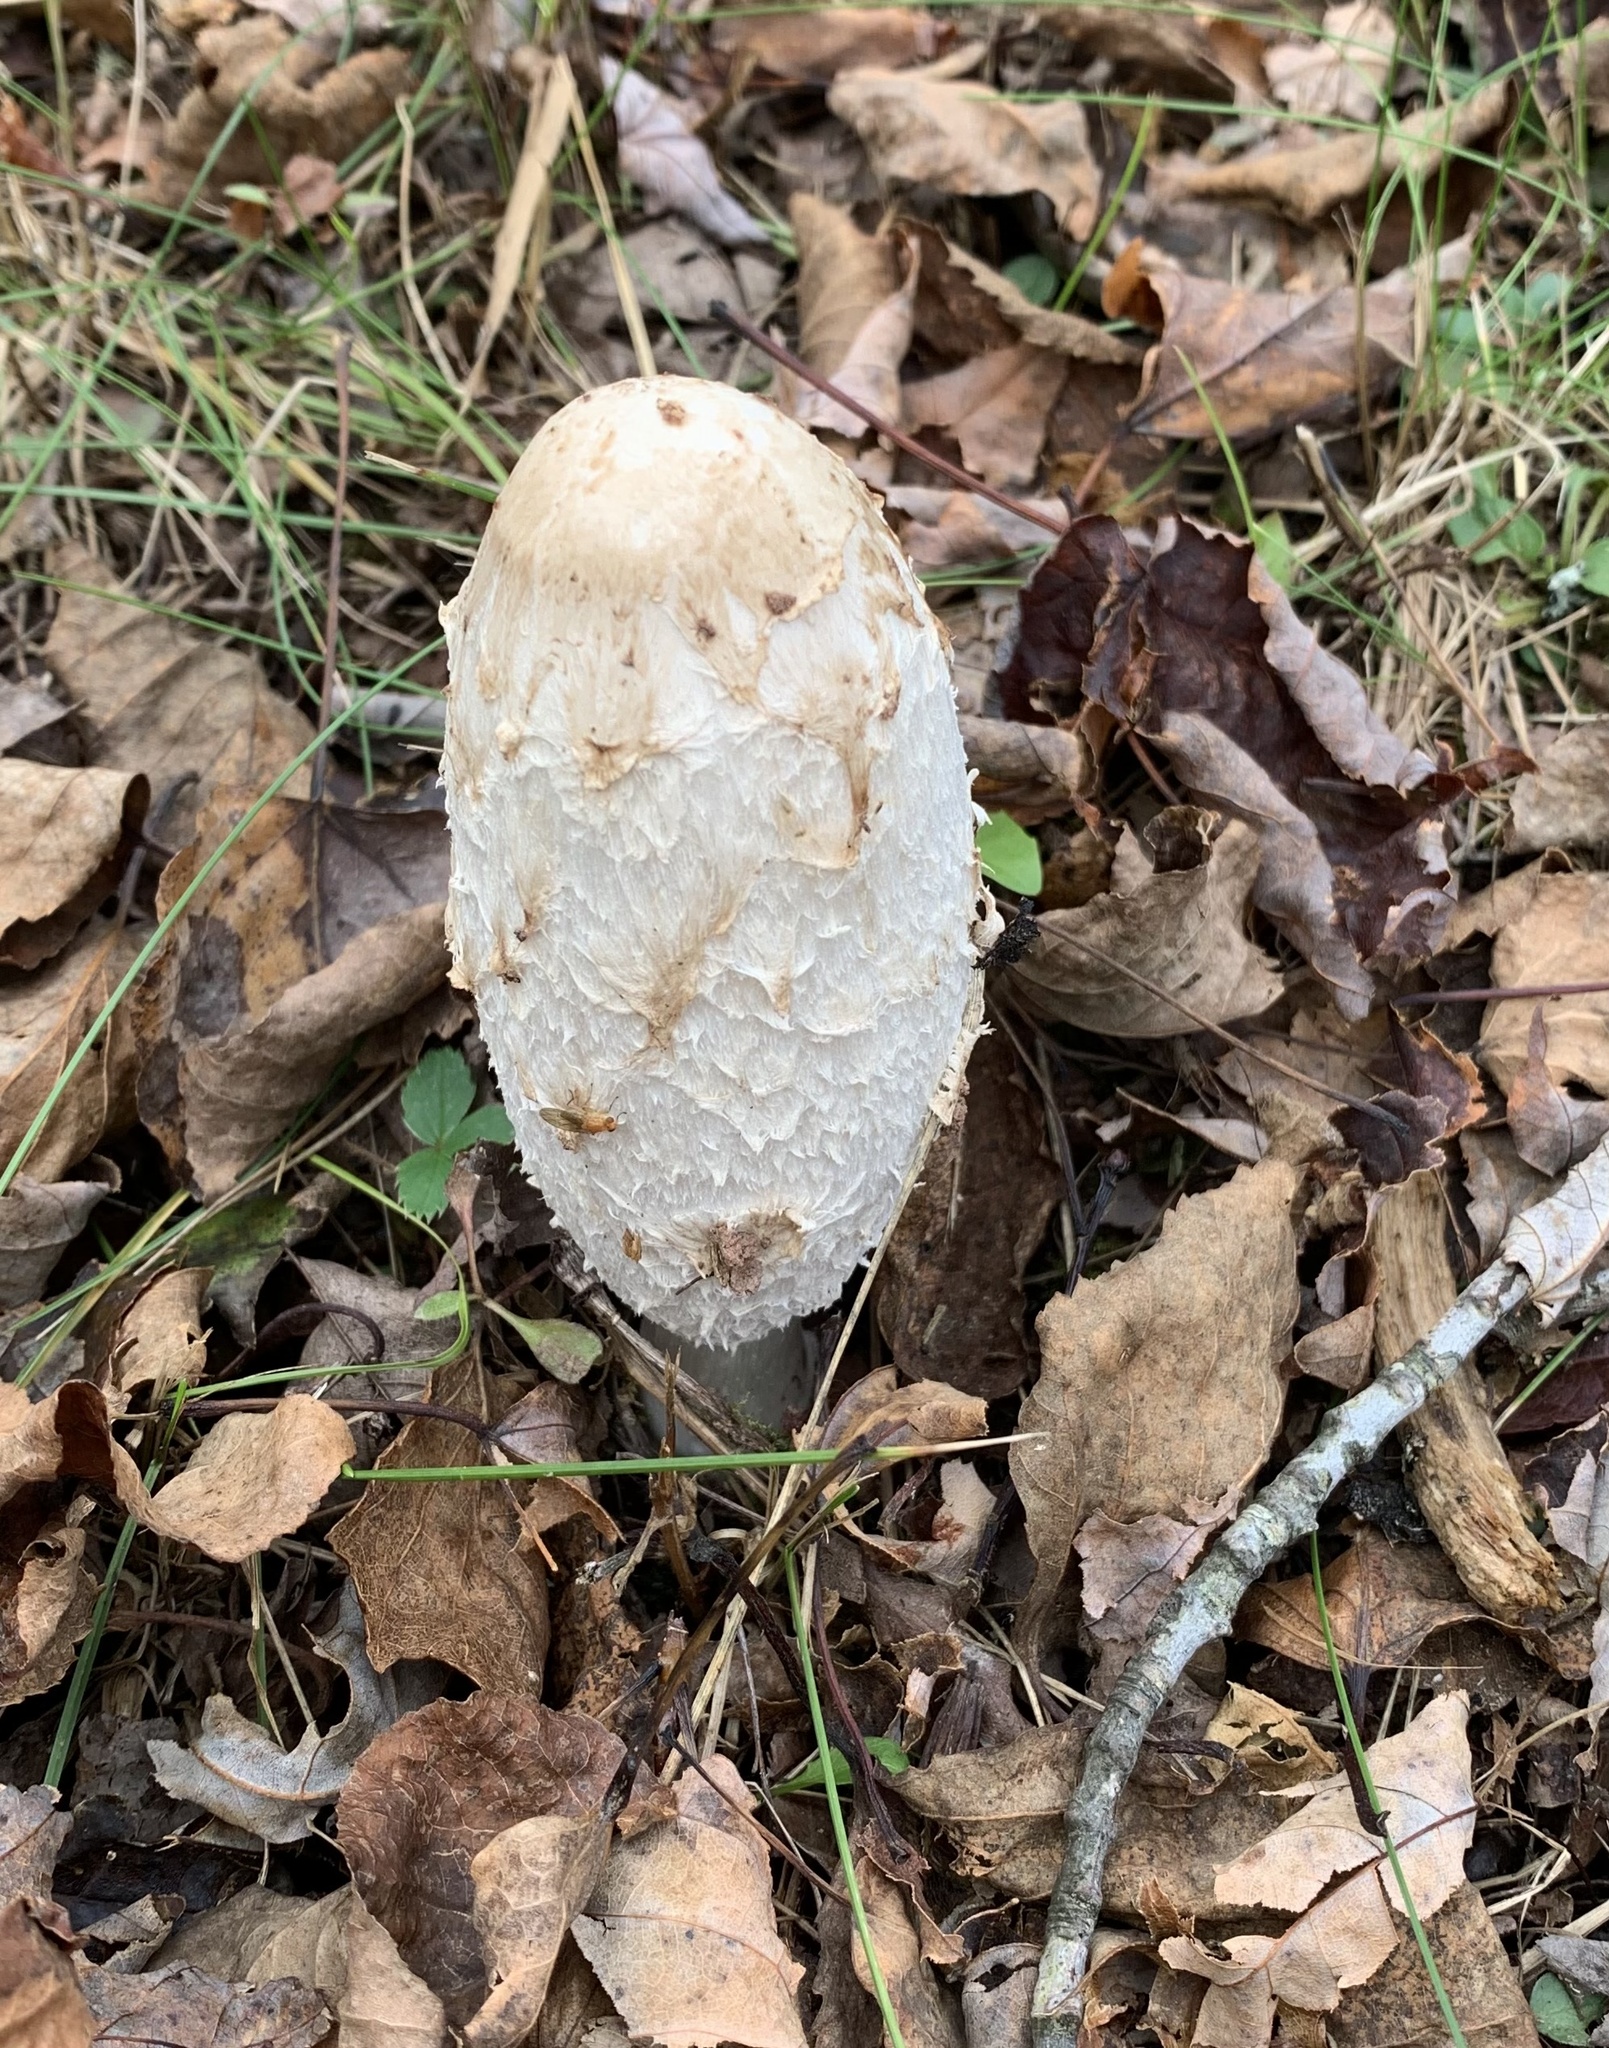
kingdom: Fungi
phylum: Basidiomycota
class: Agaricomycetes
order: Agaricales
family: Agaricaceae
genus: Coprinus
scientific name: Coprinus comatus
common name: Lawyer's wig
